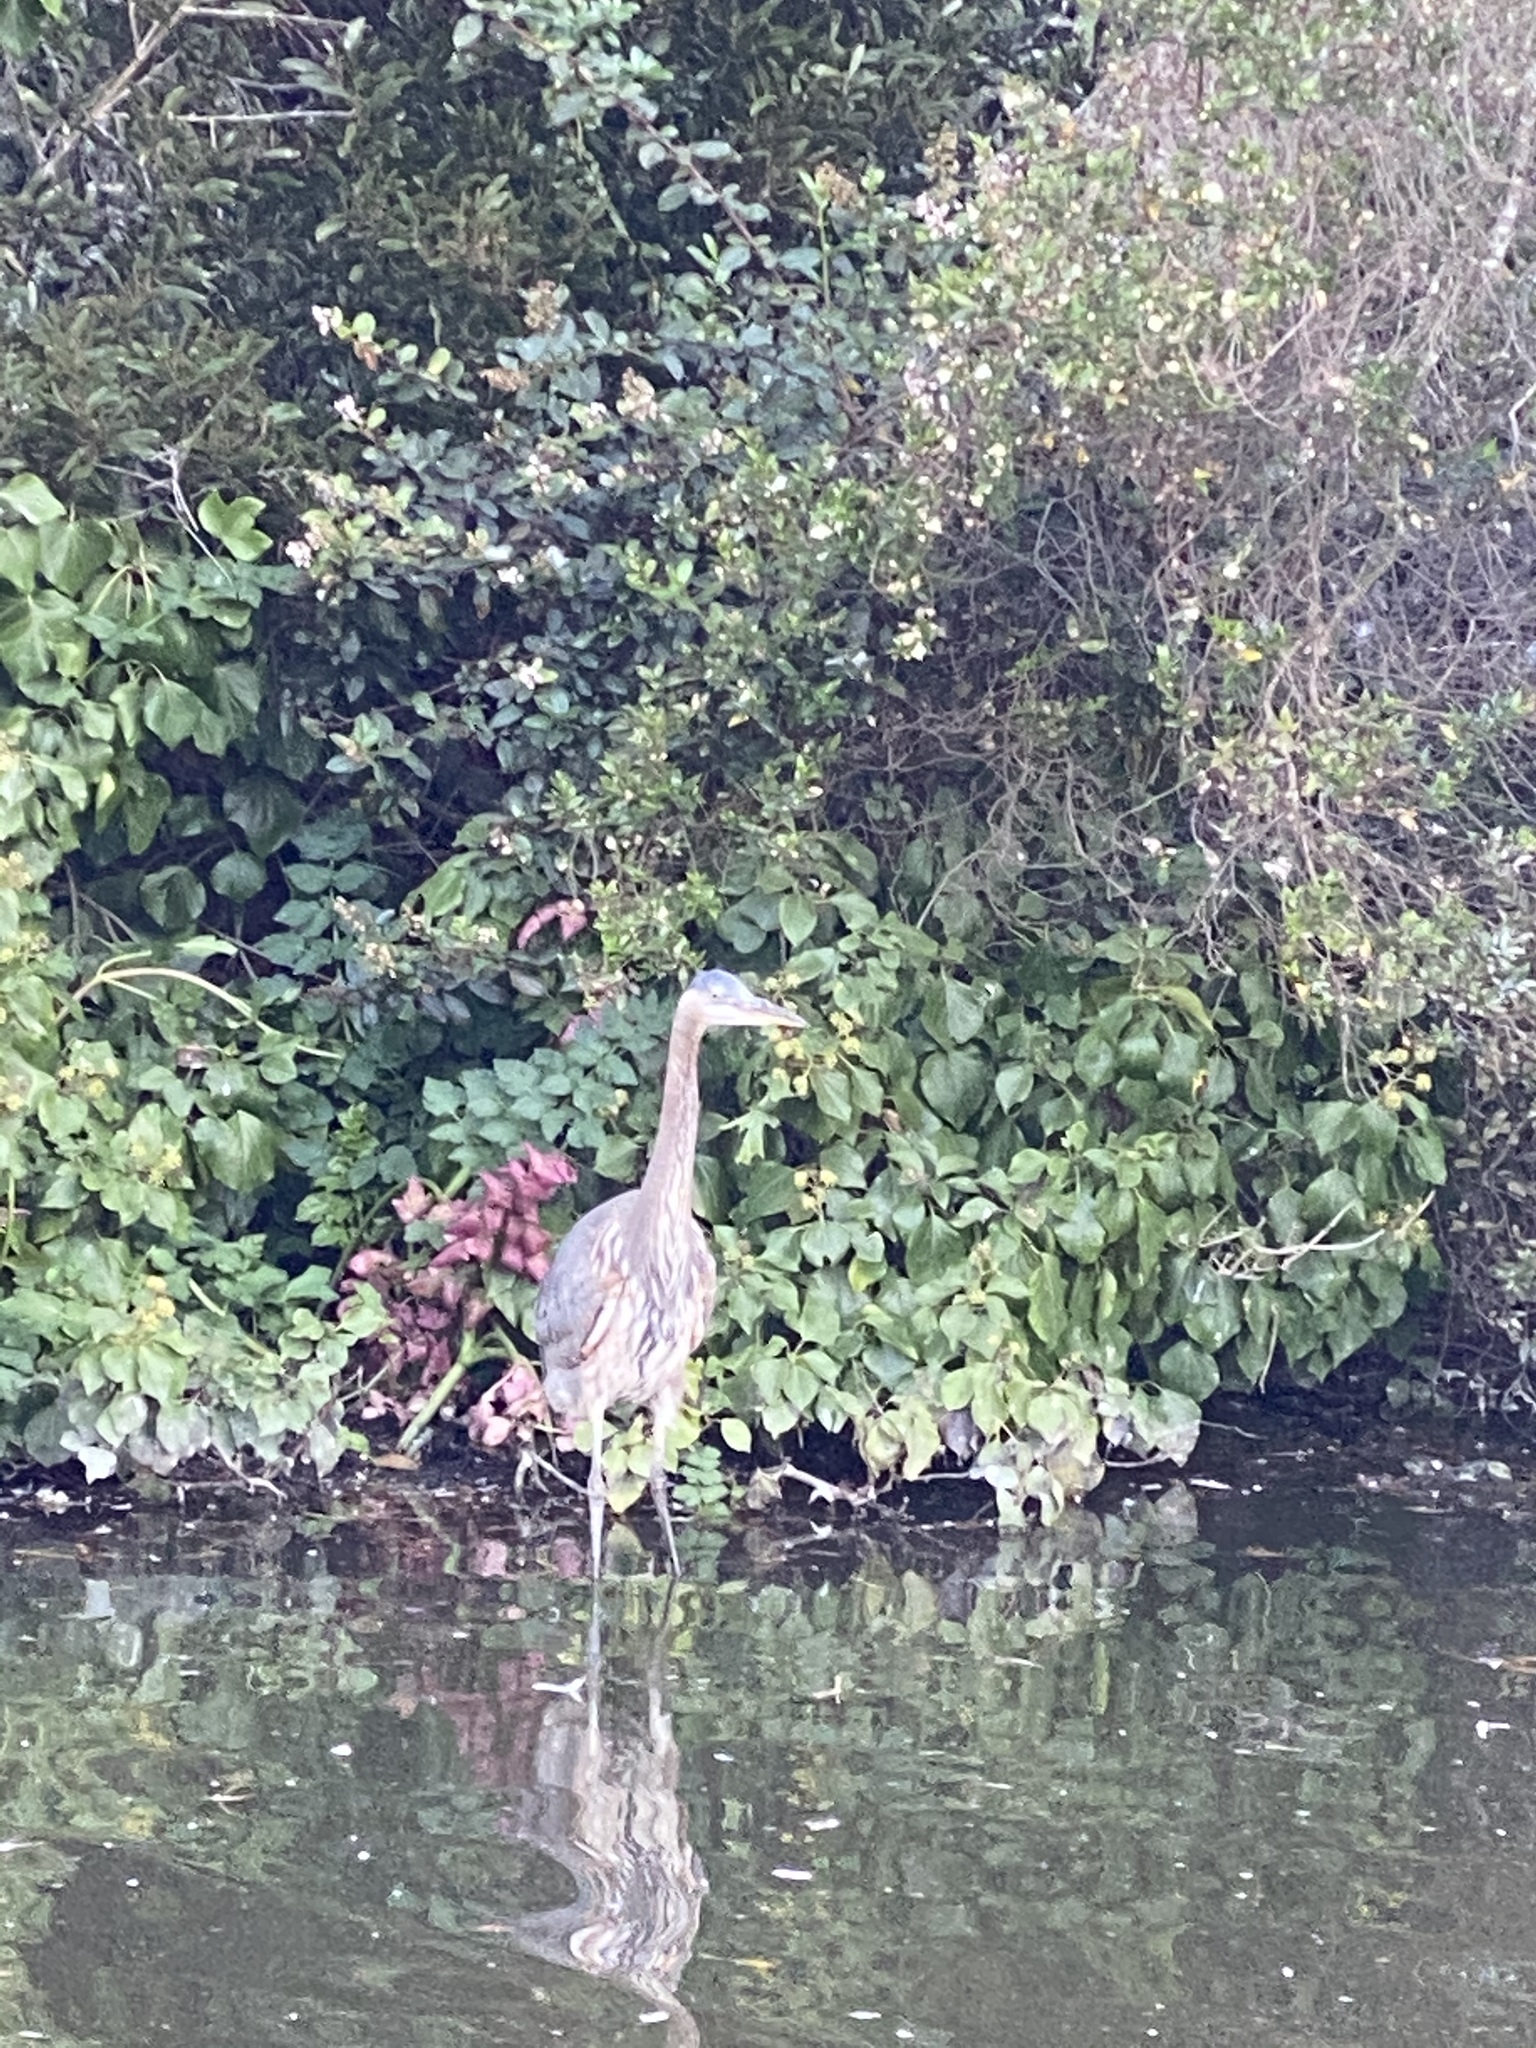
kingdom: Animalia
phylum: Chordata
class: Aves
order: Pelecaniformes
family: Ardeidae
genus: Ardea
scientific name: Ardea herodias
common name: Great blue heron
